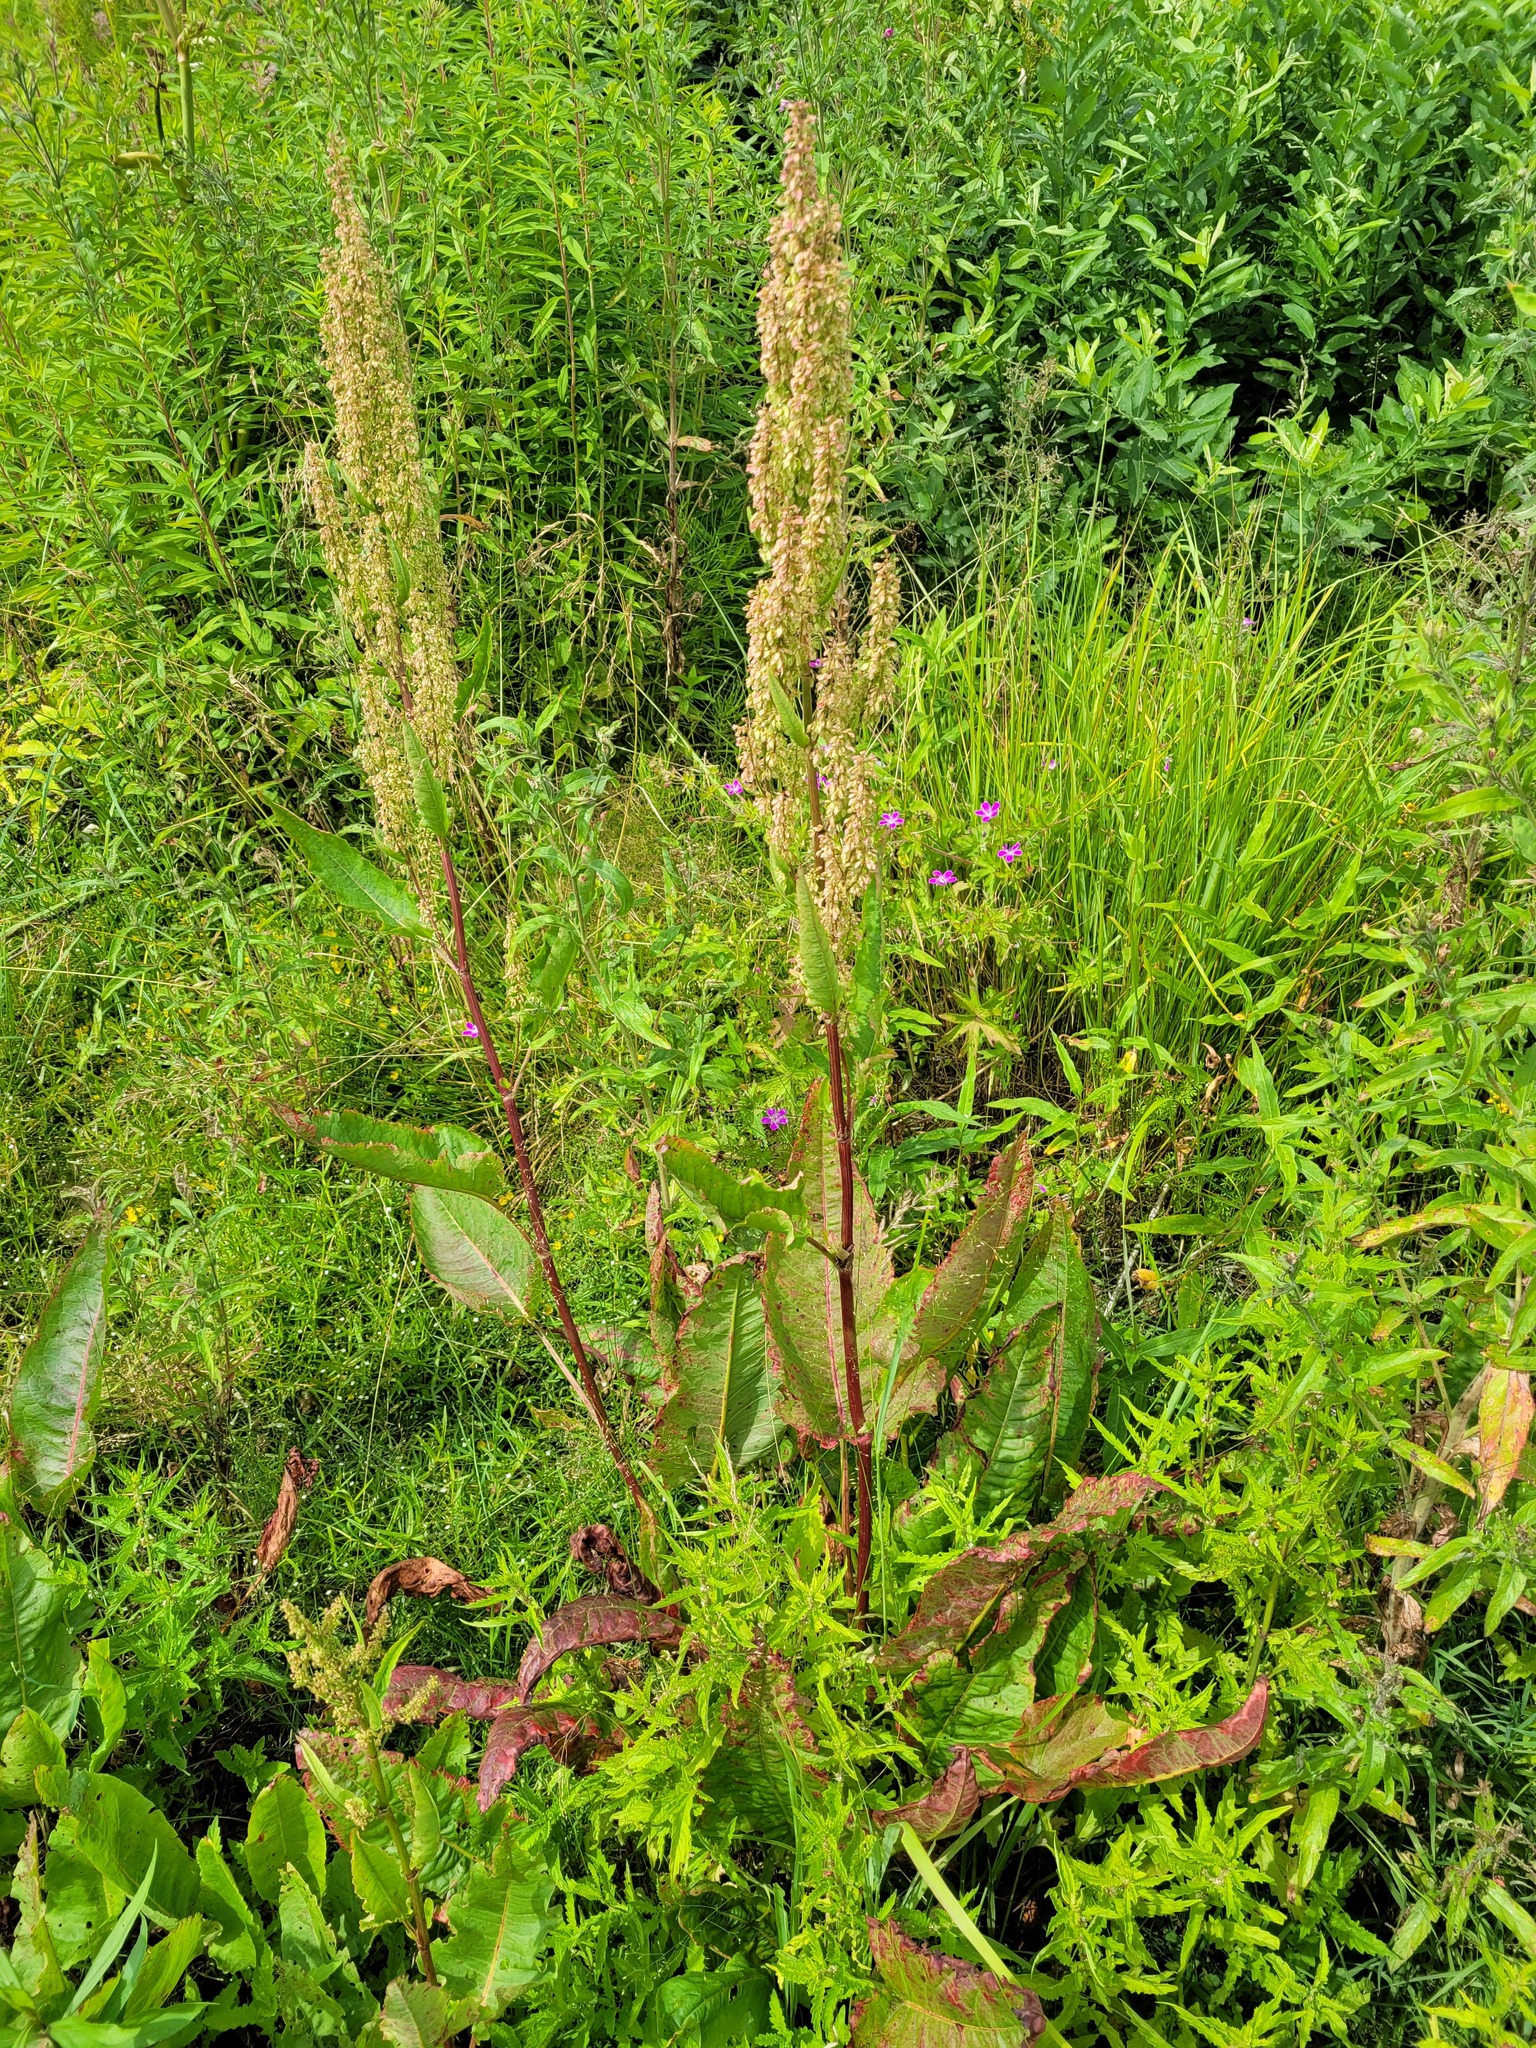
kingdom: Plantae
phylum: Tracheophyta
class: Magnoliopsida
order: Caryophyllales
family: Polygonaceae
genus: Rumex
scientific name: Rumex aquaticus
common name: Scottish dock
